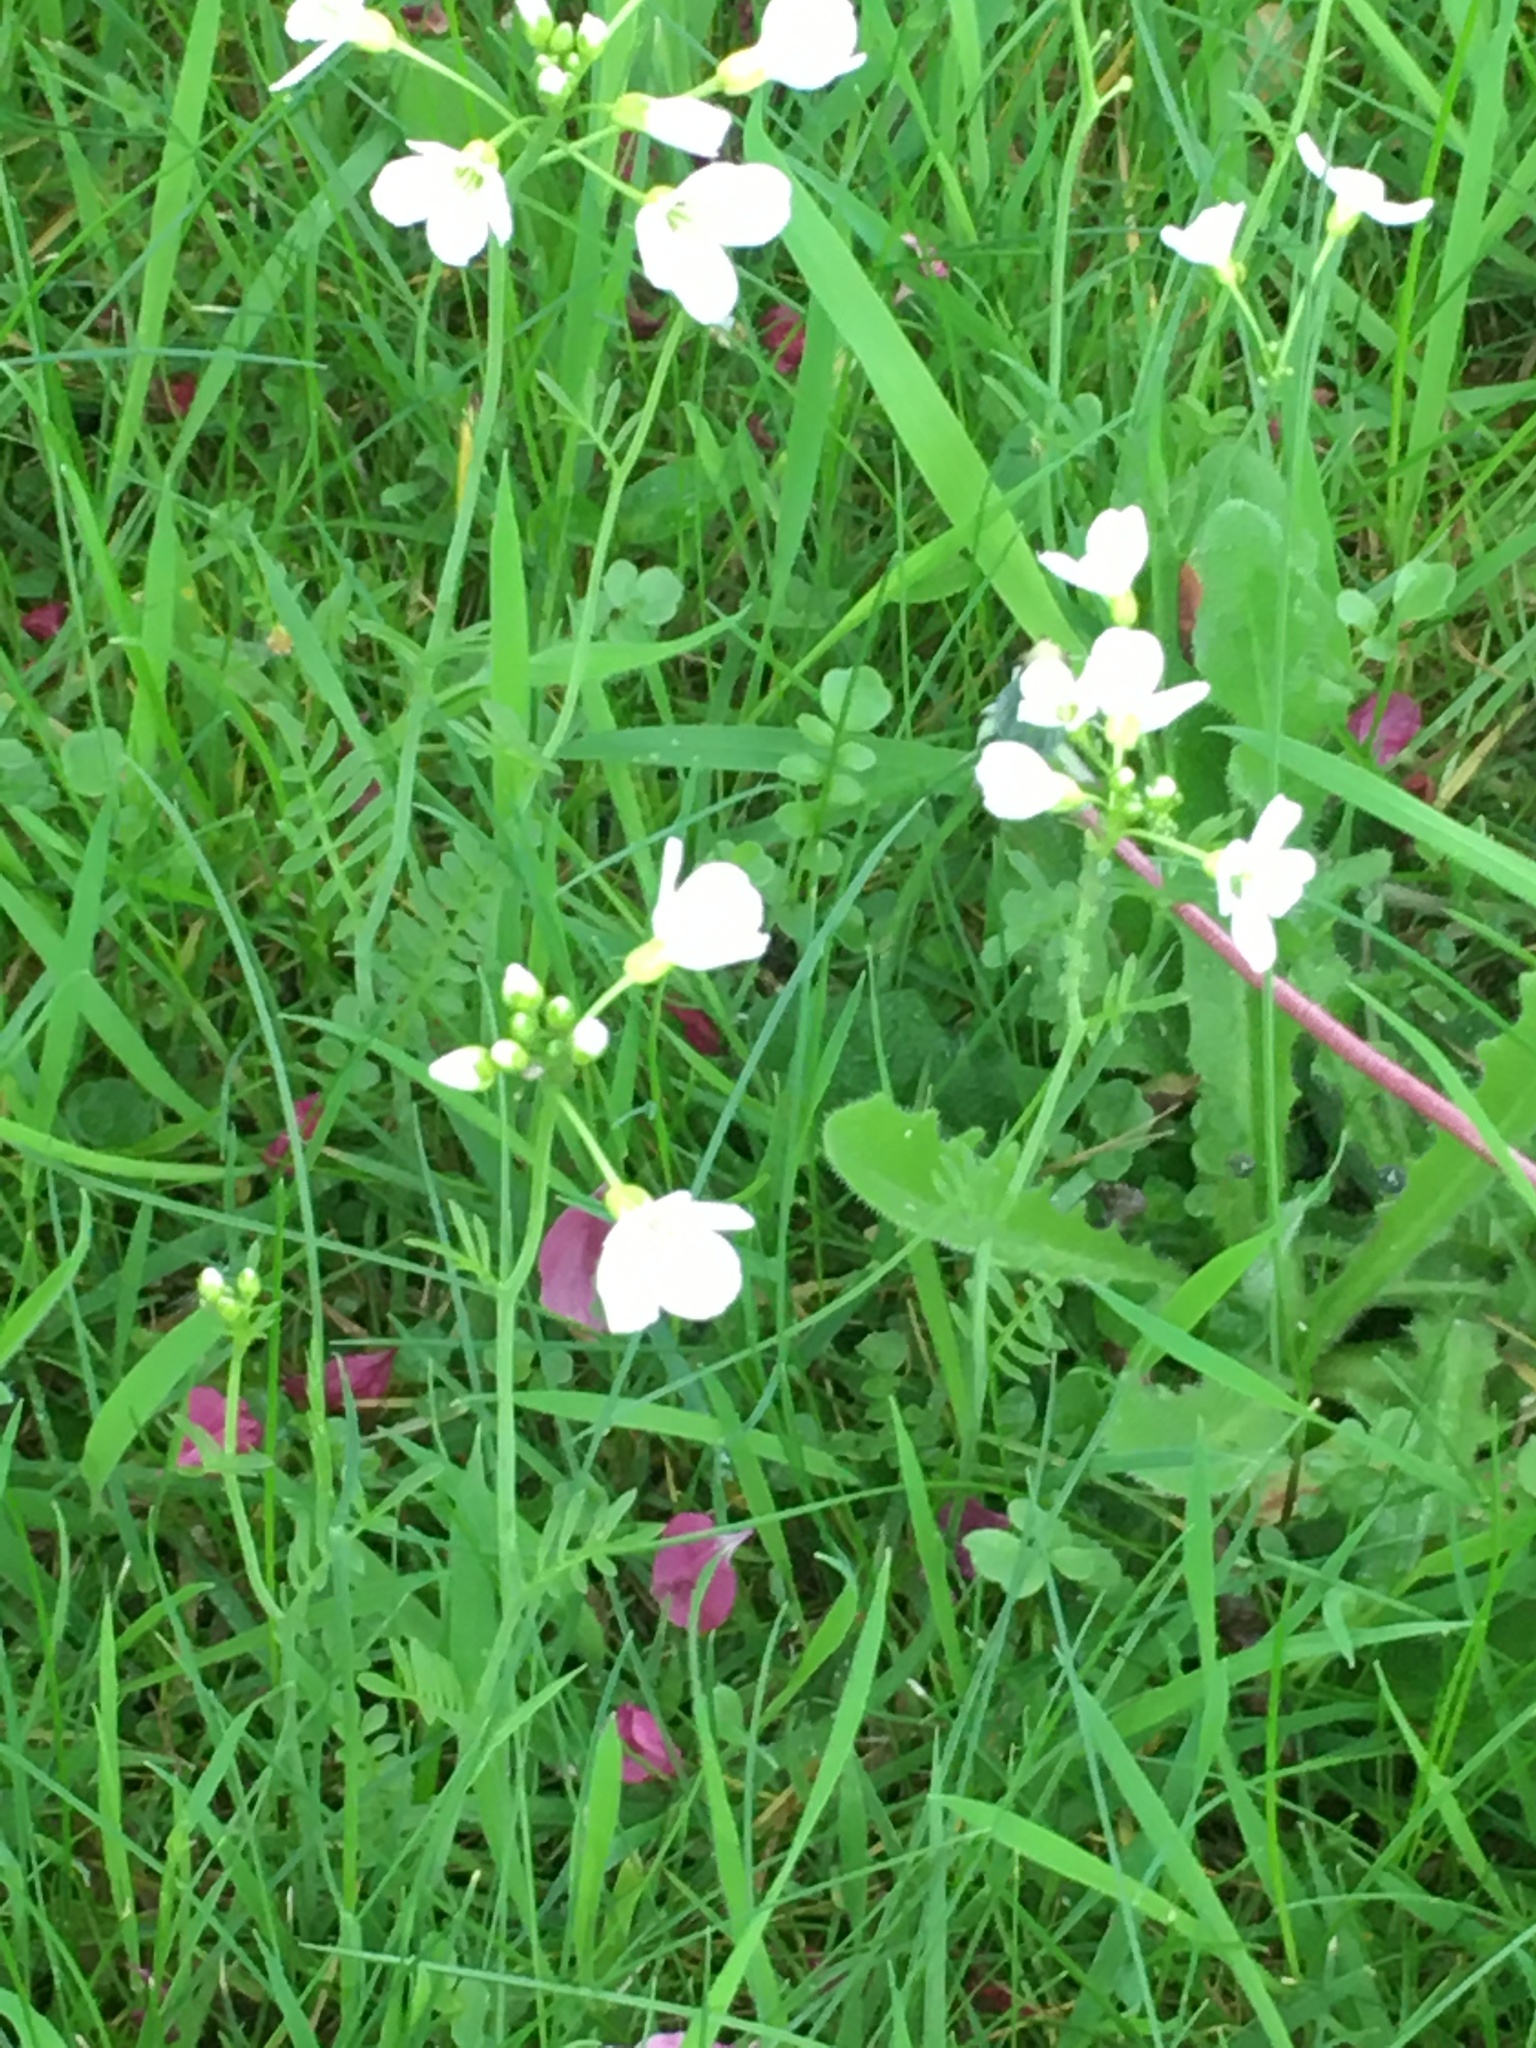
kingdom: Plantae
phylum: Tracheophyta
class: Magnoliopsida
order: Brassicales
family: Brassicaceae
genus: Cardamine
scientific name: Cardamine pratensis
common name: Cuckoo flower
